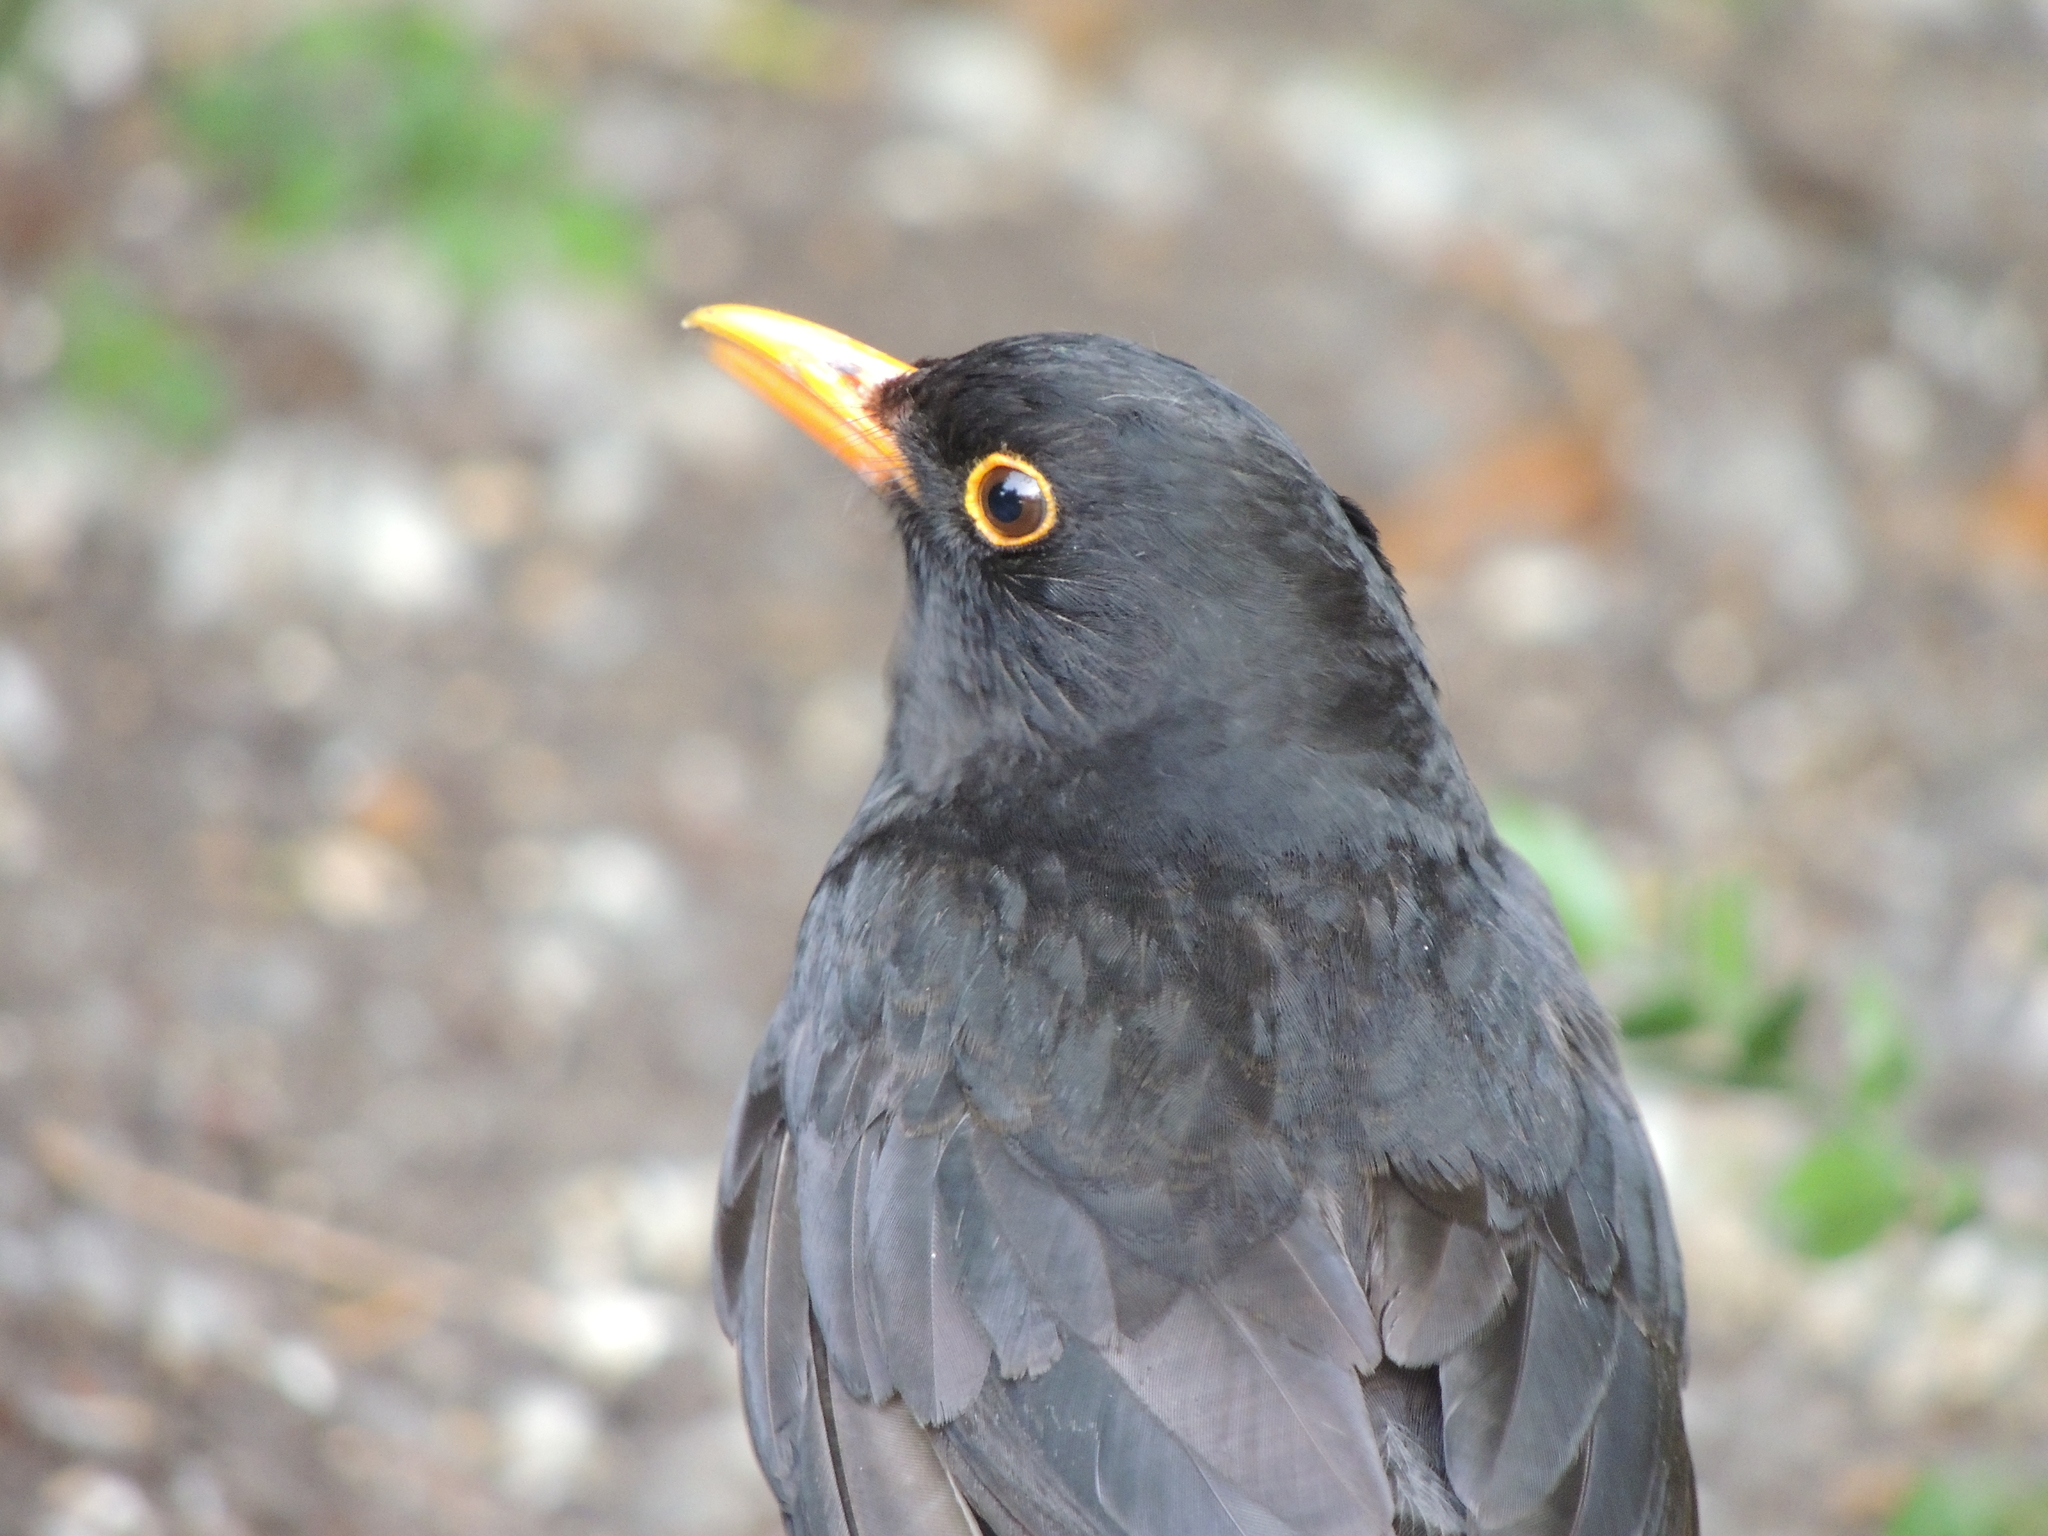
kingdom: Animalia
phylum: Chordata
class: Aves
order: Passeriformes
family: Turdidae
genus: Turdus
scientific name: Turdus merula
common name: Common blackbird
